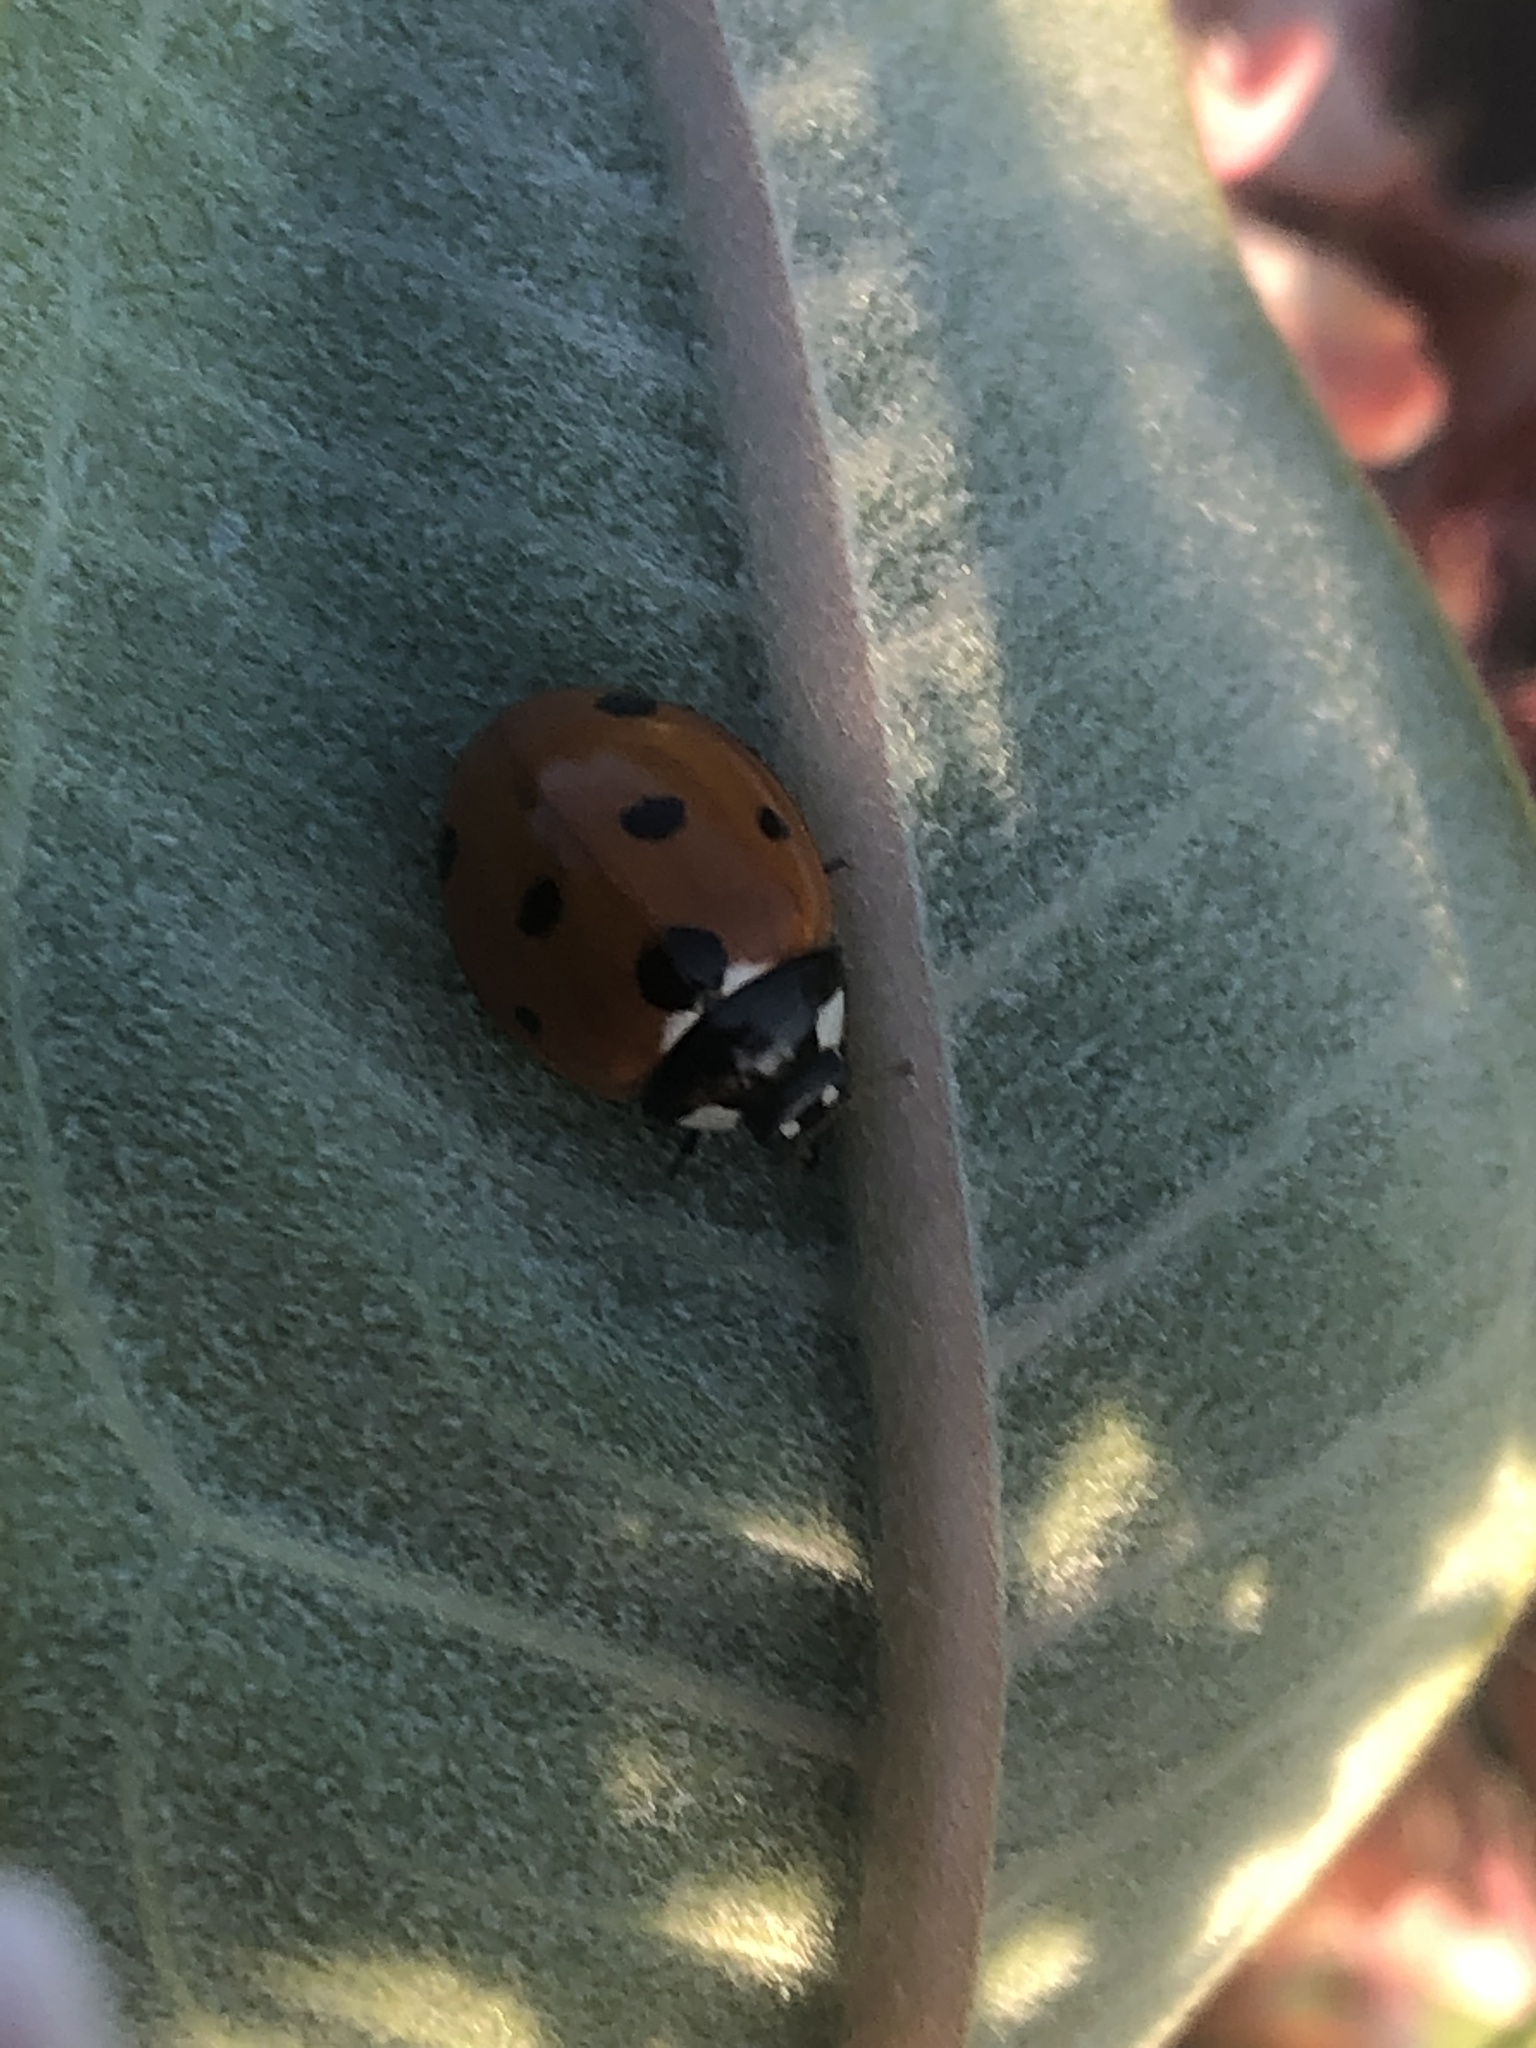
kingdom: Animalia
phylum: Arthropoda
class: Insecta
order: Coleoptera
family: Coccinellidae
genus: Coccinella
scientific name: Coccinella septempunctata
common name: Sevenspotted lady beetle
